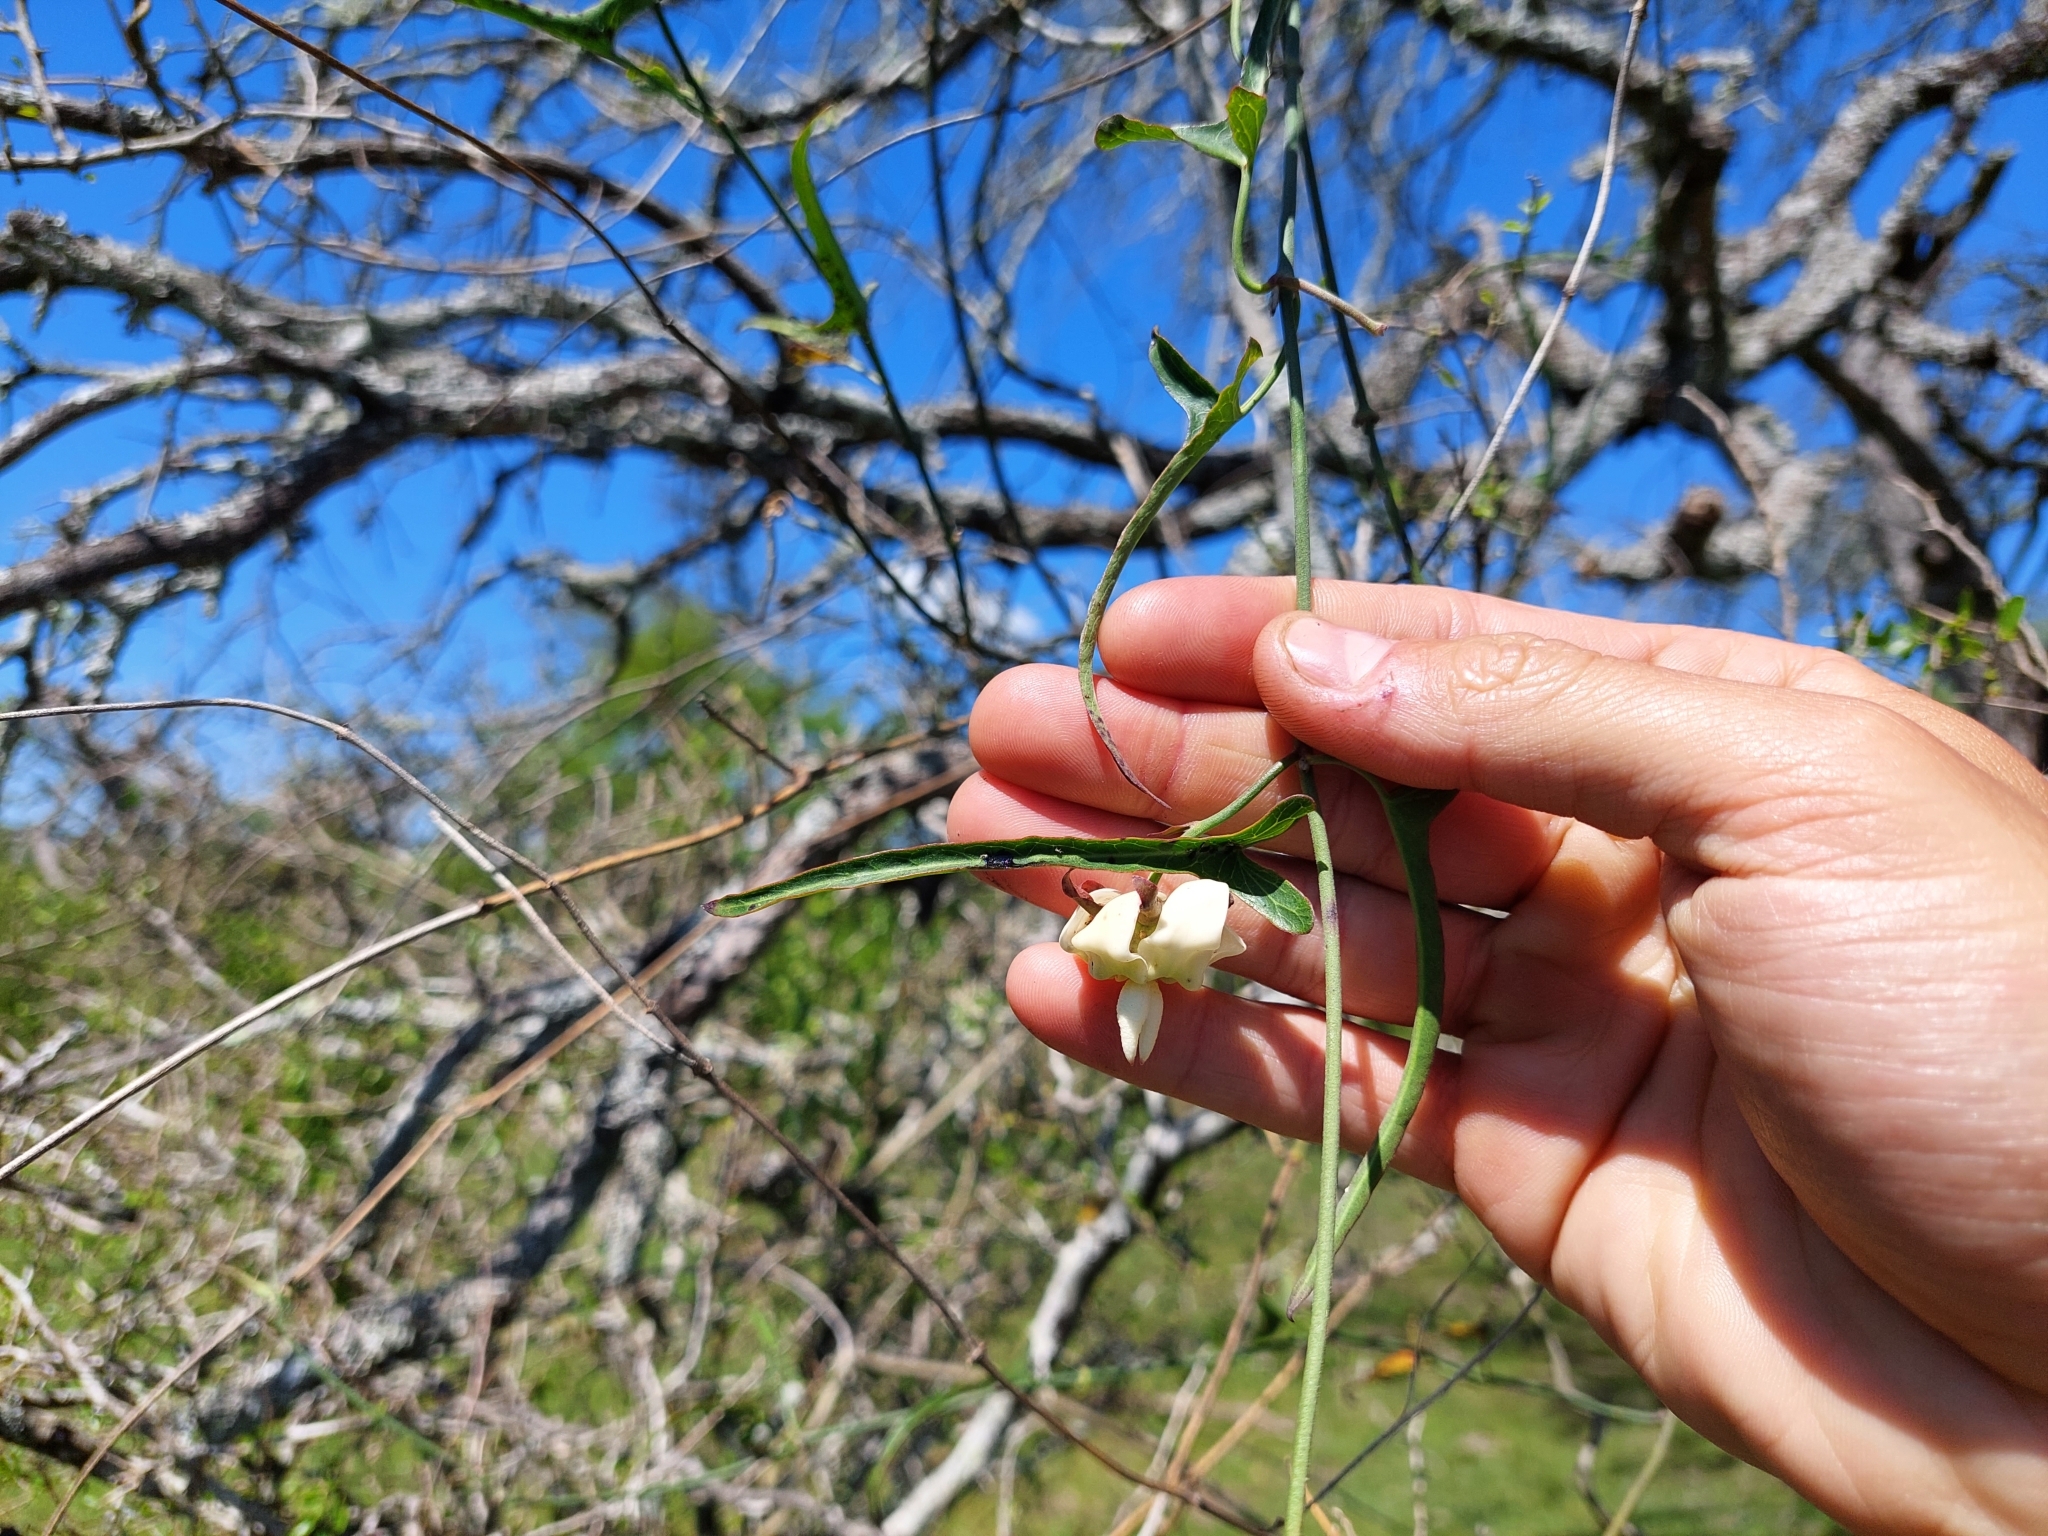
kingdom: Plantae
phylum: Tracheophyta
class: Magnoliopsida
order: Gentianales
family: Apocynaceae
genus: Araujia
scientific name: Araujia angustifolia
